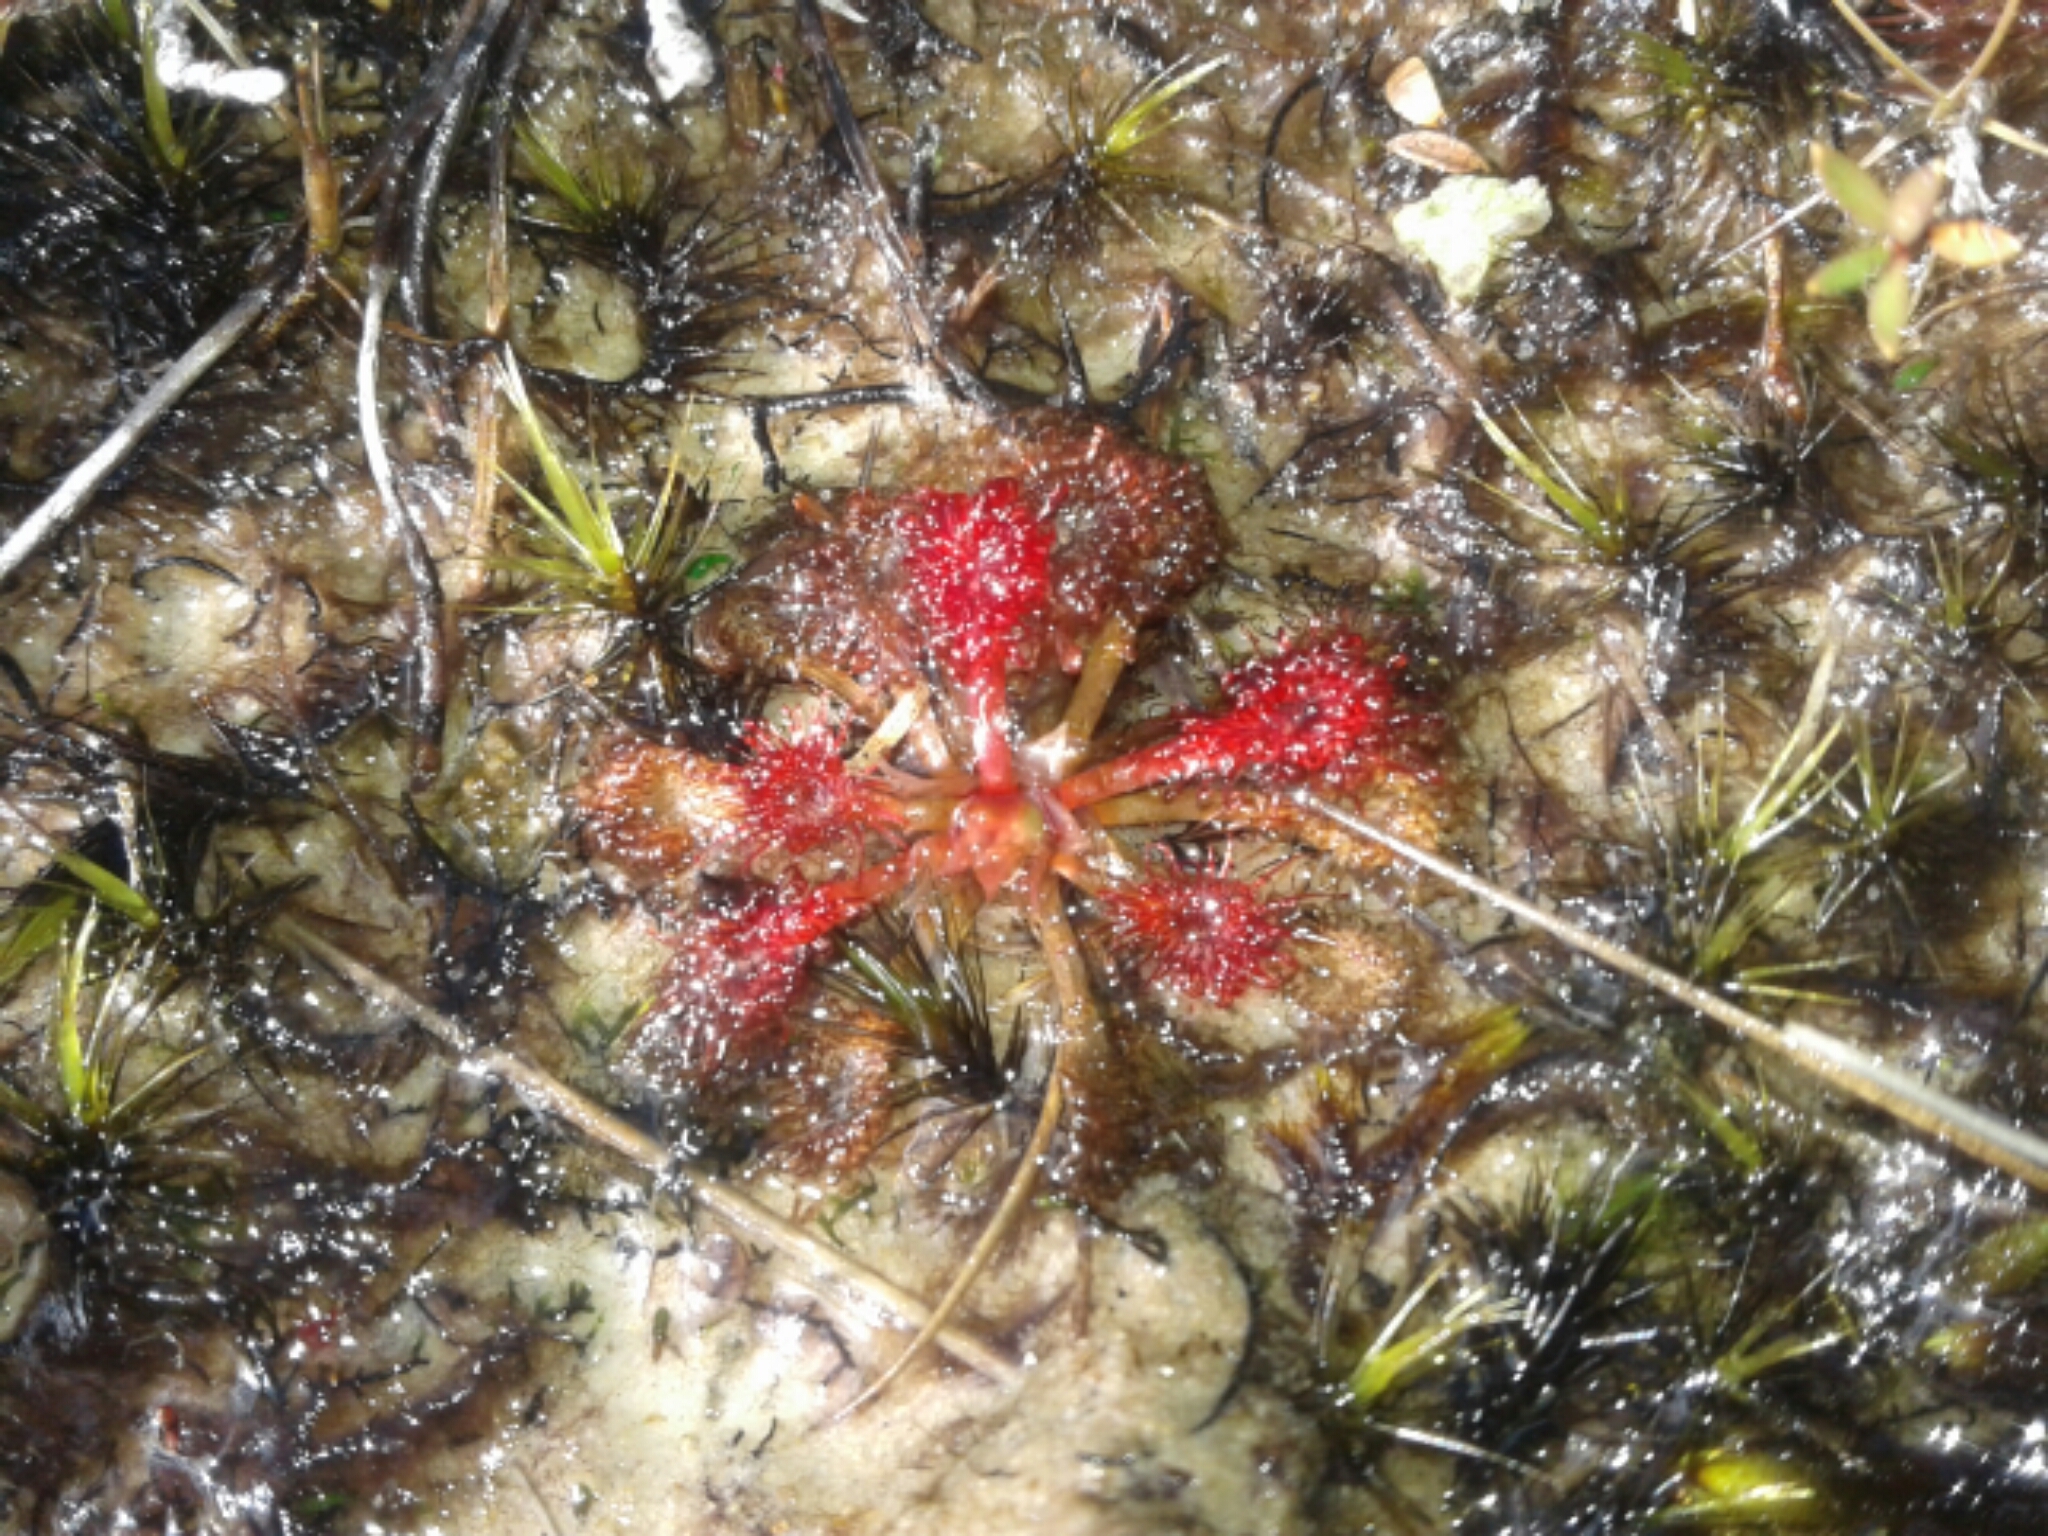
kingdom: Plantae
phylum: Tracheophyta
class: Magnoliopsida
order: Caryophyllales
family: Droseraceae
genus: Drosera
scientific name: Drosera spatulata
